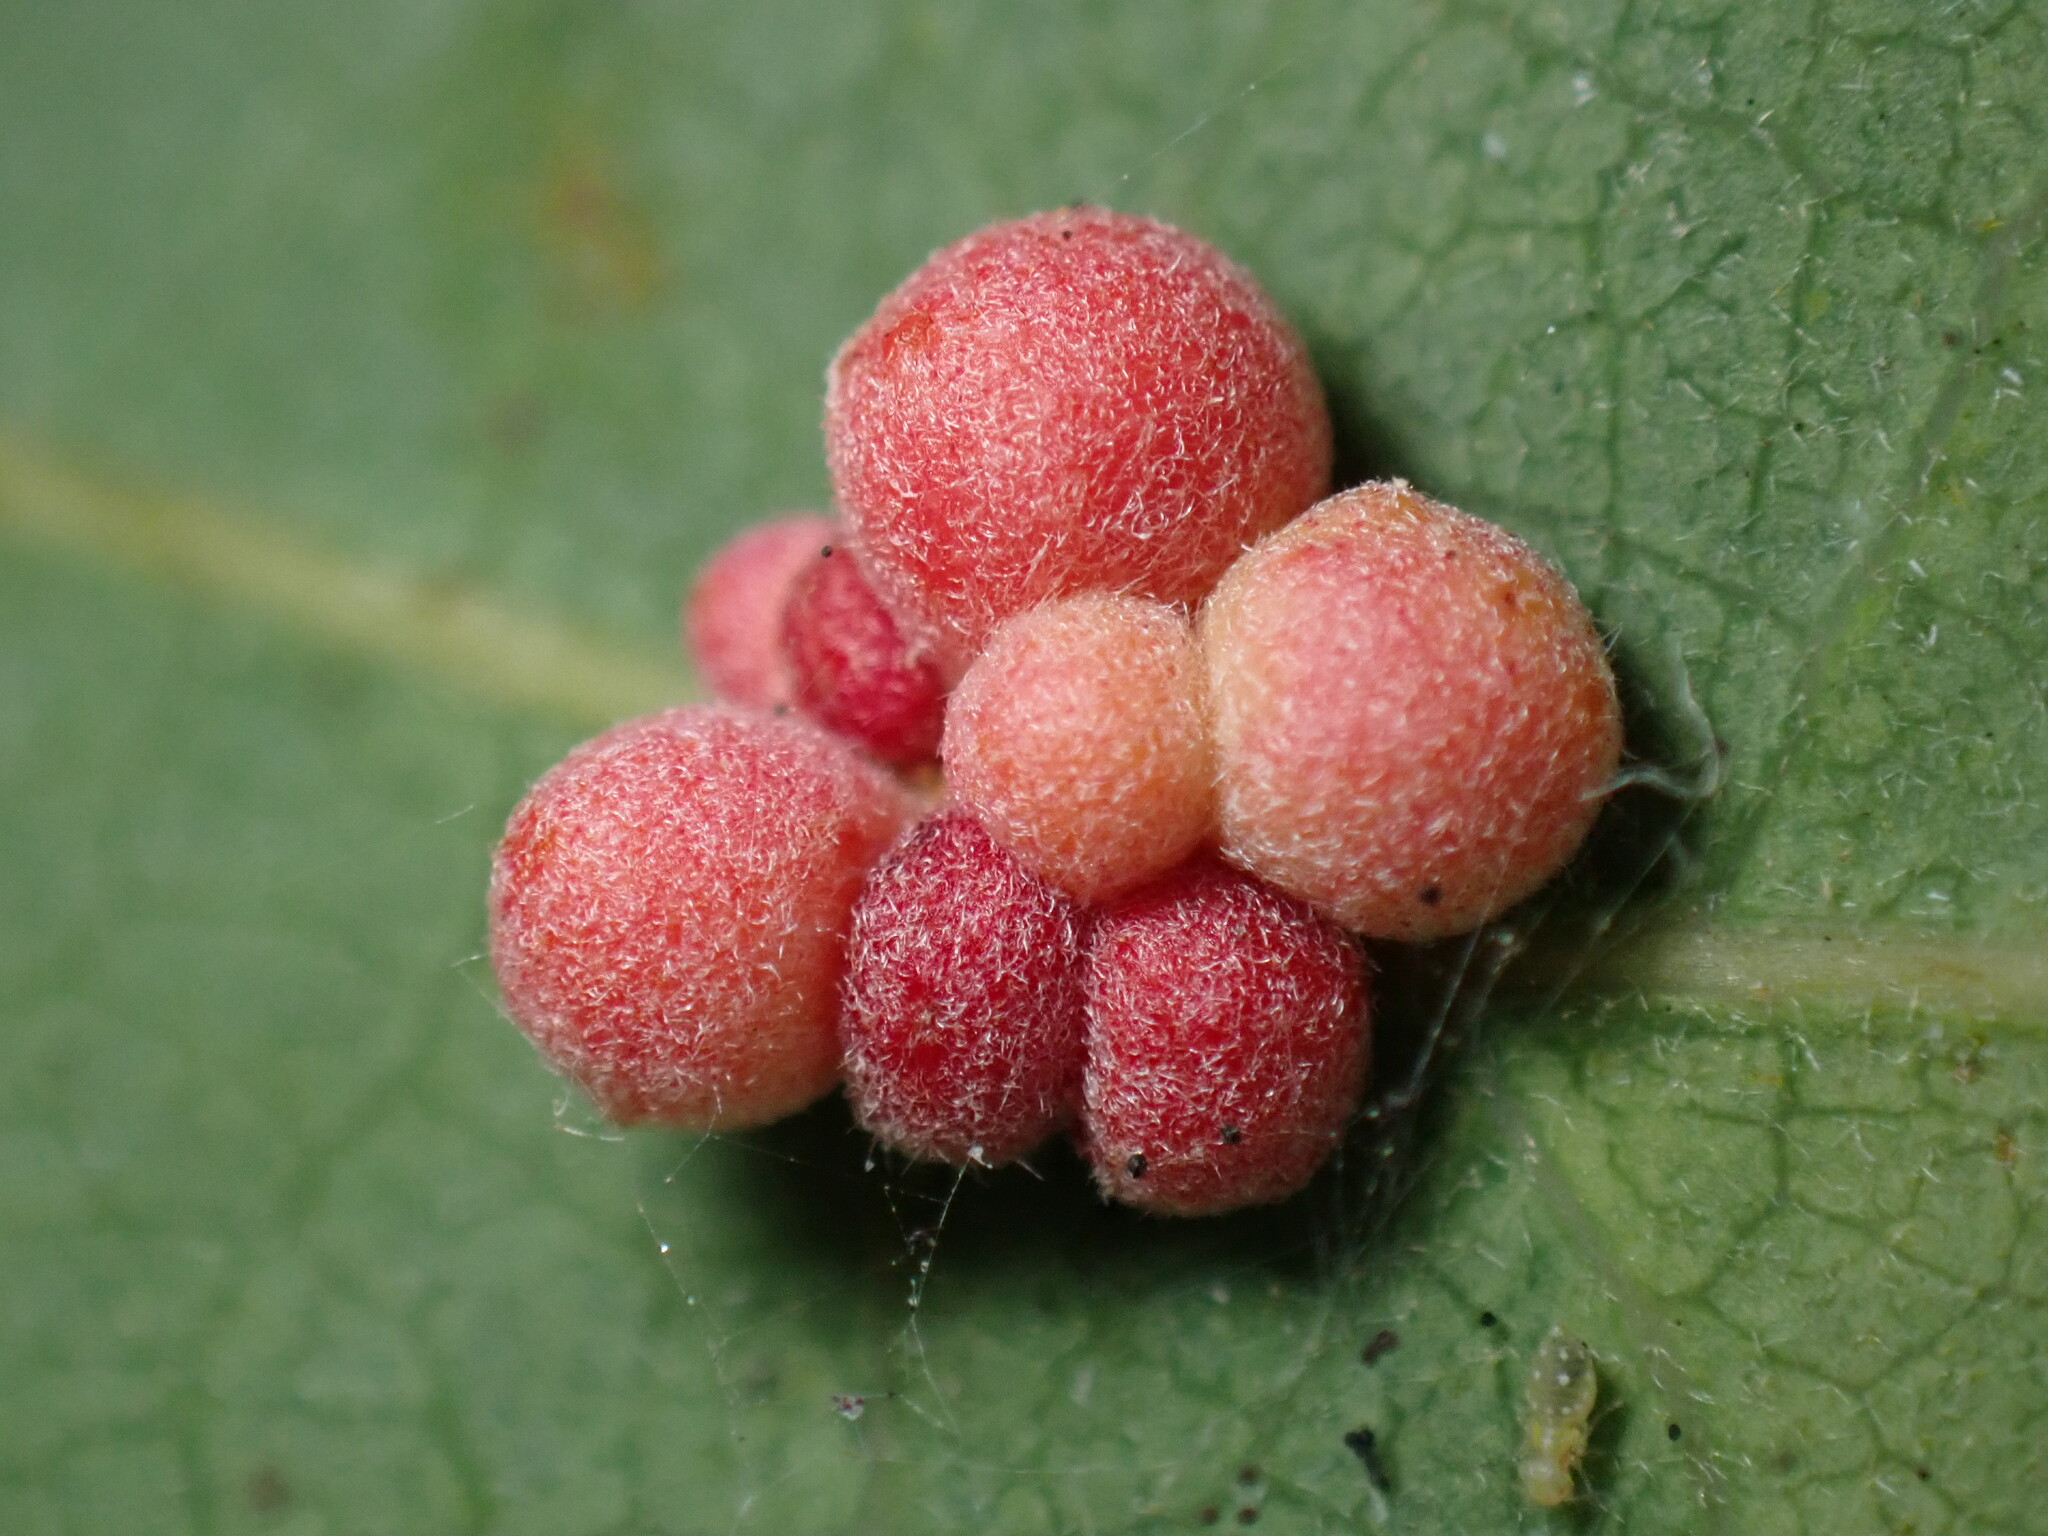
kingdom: Animalia
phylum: Arthropoda
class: Insecta
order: Hymenoptera
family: Cynipidae
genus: Andricus
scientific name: Andricus
